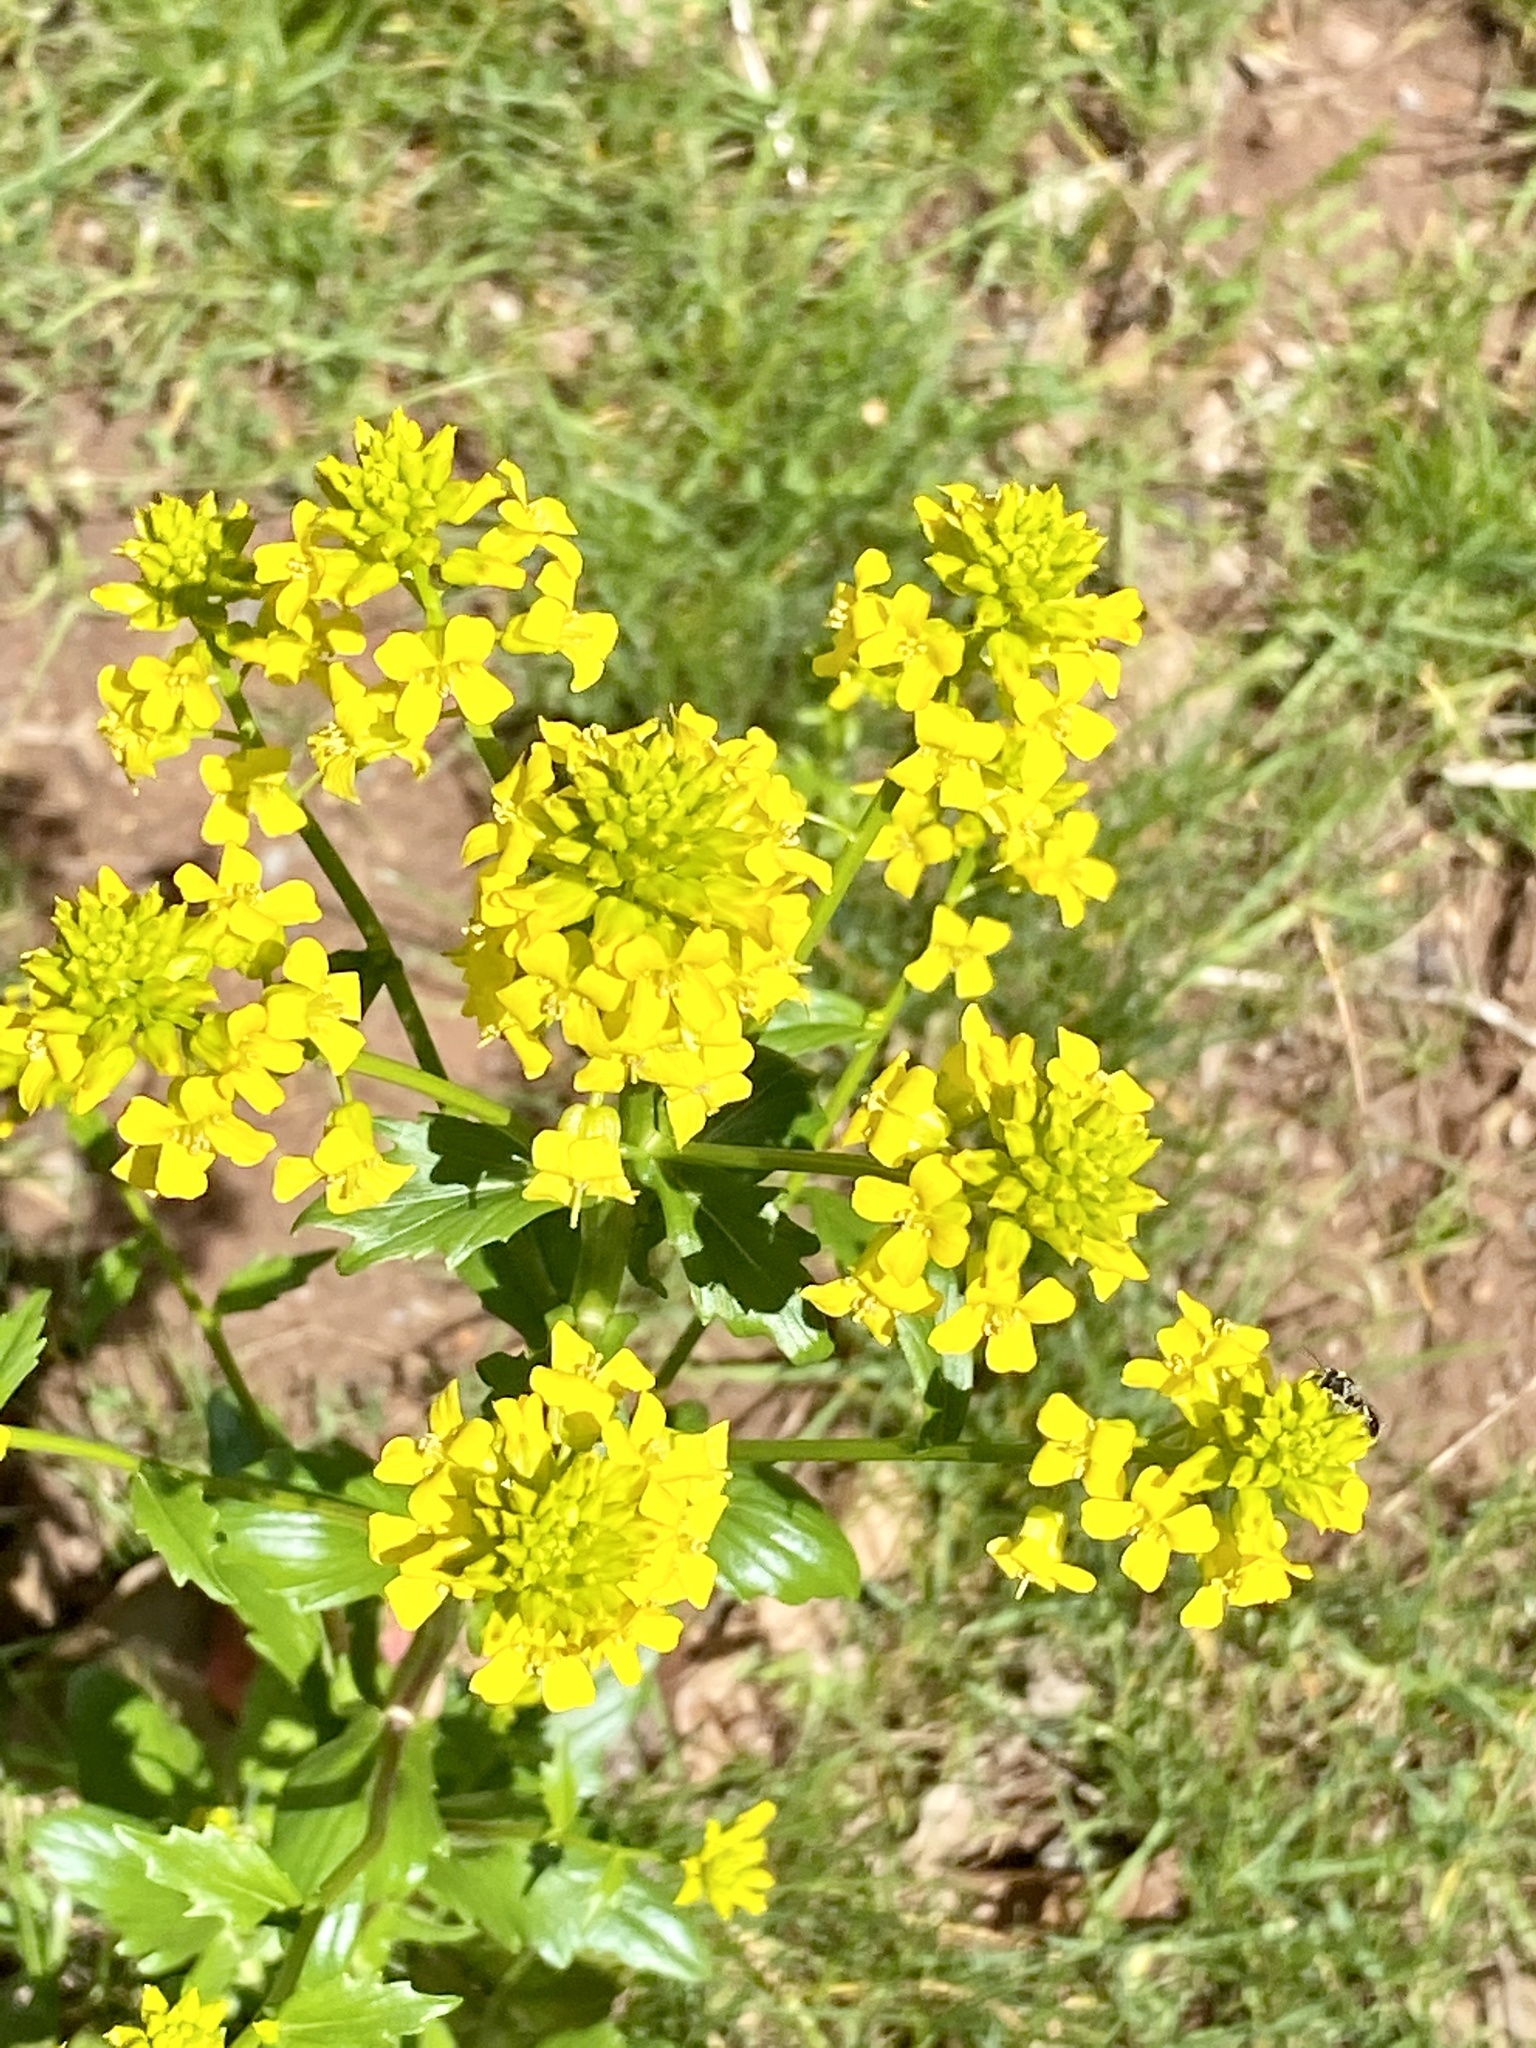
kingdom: Plantae
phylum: Tracheophyta
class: Magnoliopsida
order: Brassicales
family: Brassicaceae
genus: Barbarea
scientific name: Barbarea vulgaris
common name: Cressy-greens
